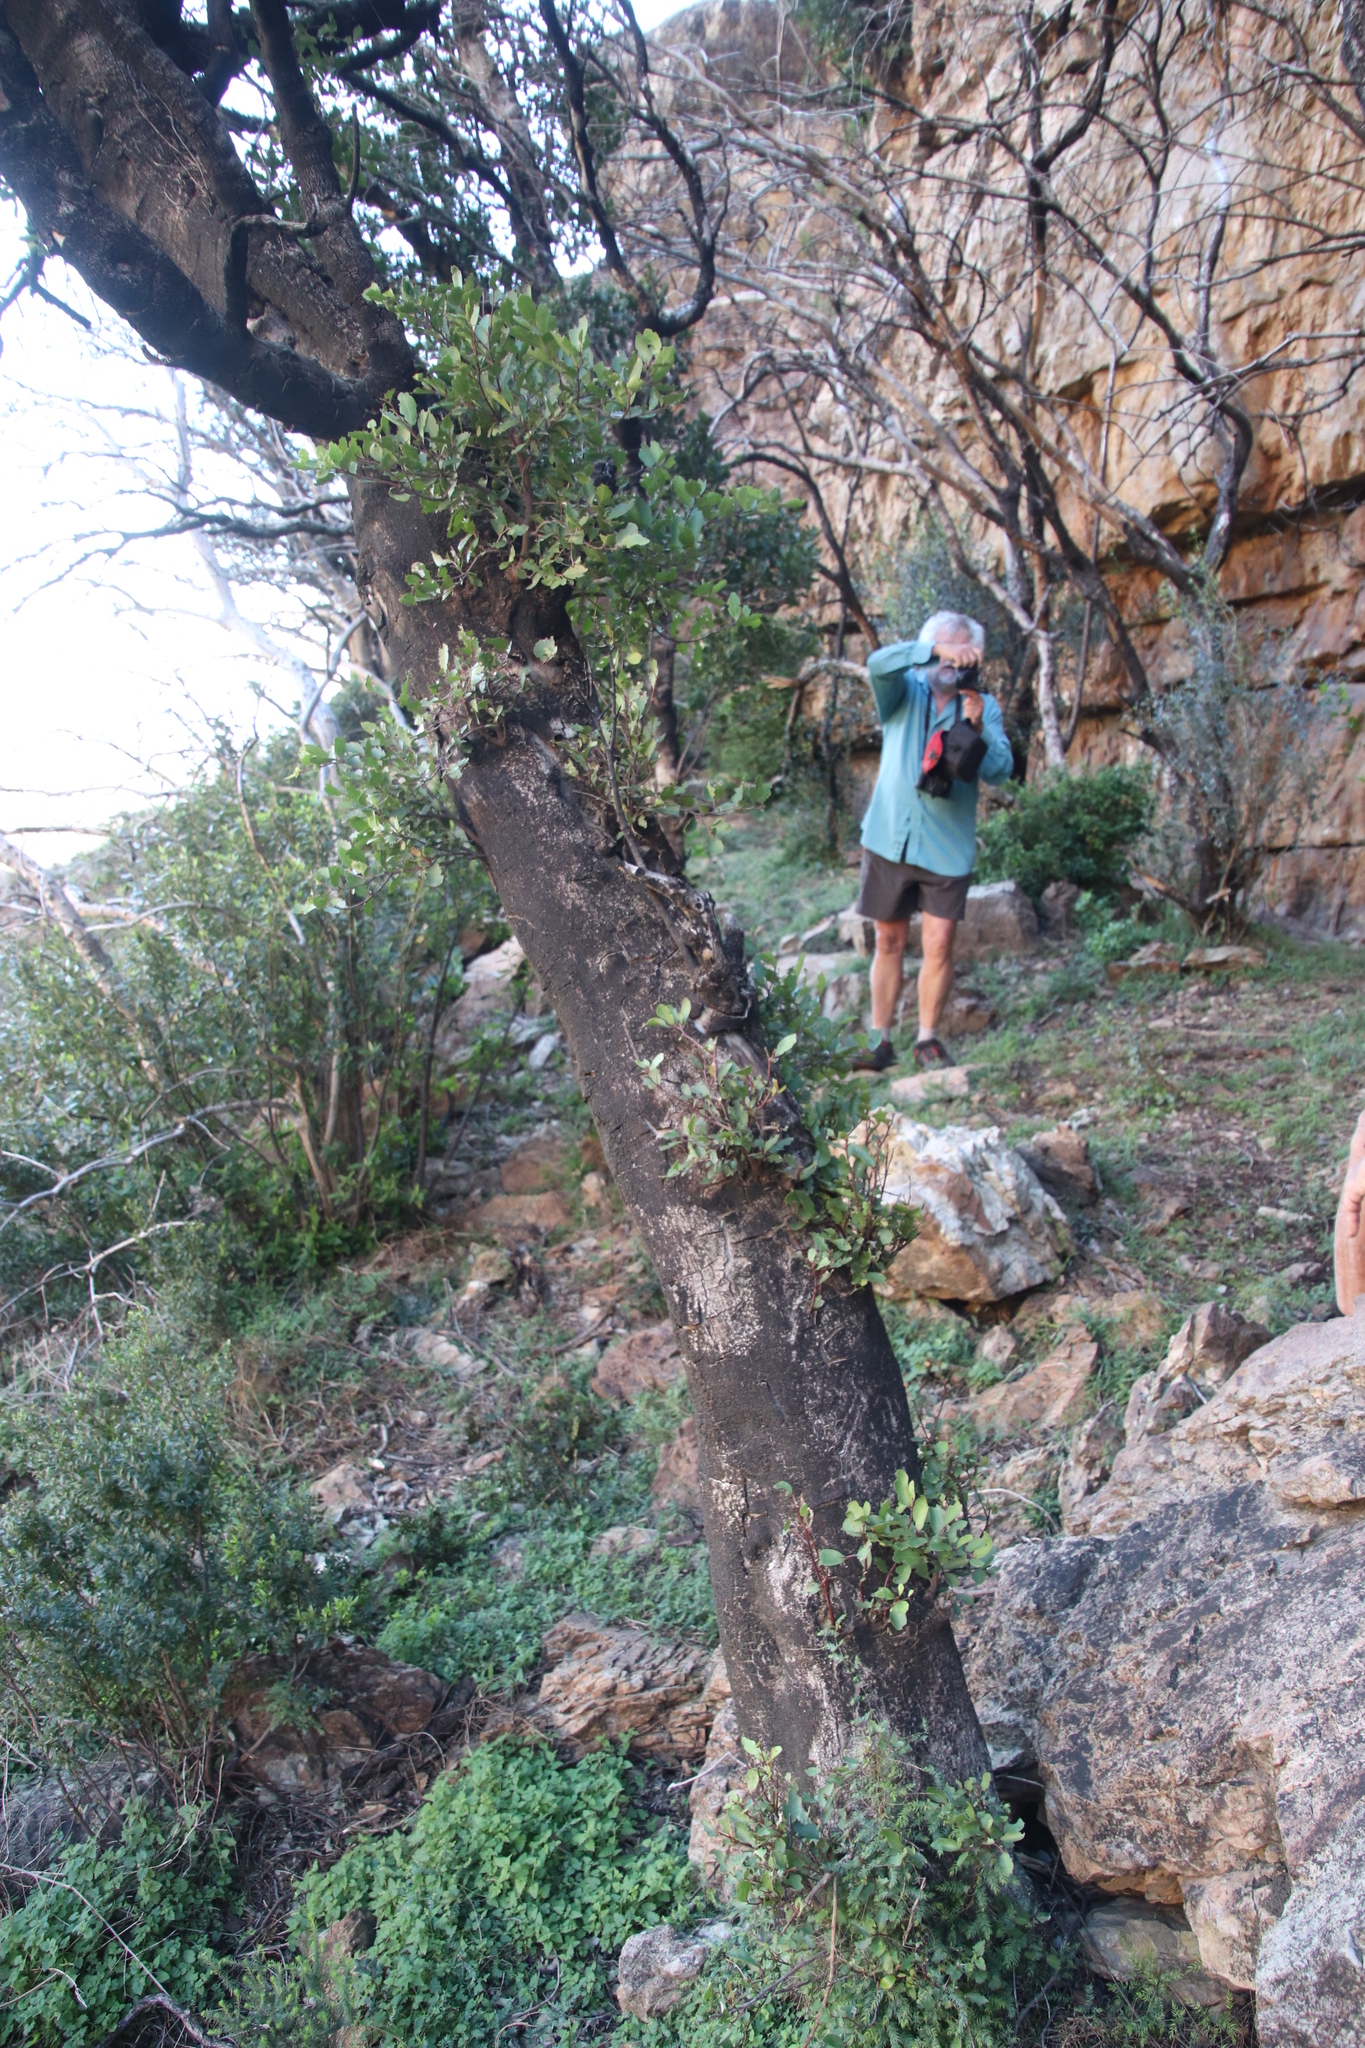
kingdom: Plantae
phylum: Tracheophyta
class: Magnoliopsida
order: Celastrales
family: Celastraceae
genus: Gymnosporia
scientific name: Gymnosporia laurina
